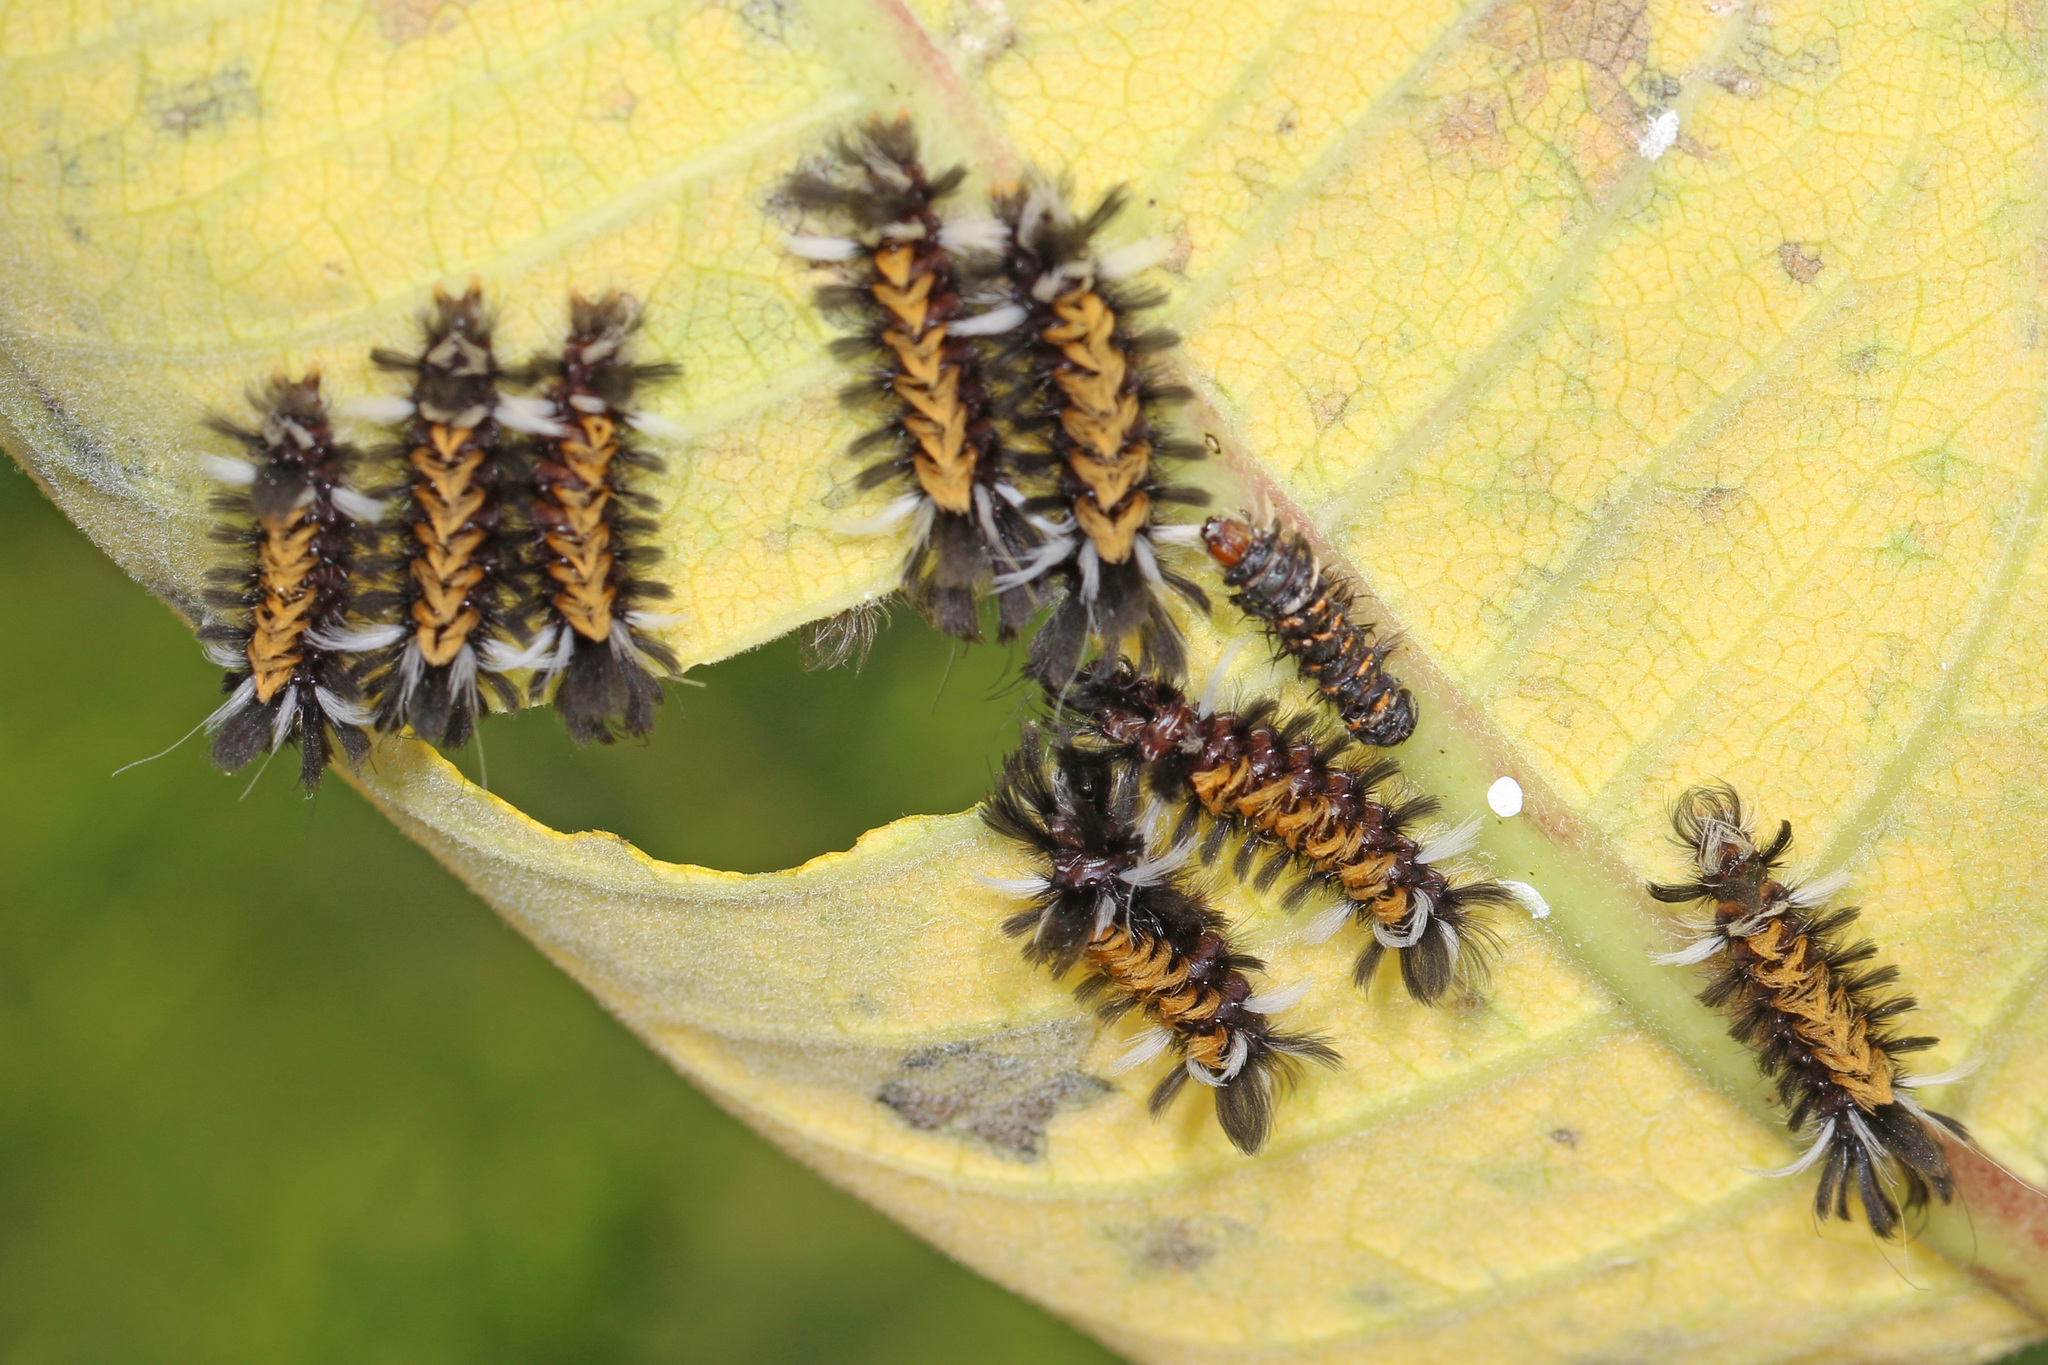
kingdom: Animalia
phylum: Arthropoda
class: Insecta
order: Lepidoptera
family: Erebidae
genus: Euchaetes
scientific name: Euchaetes egle
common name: Milkweed tussock moth
